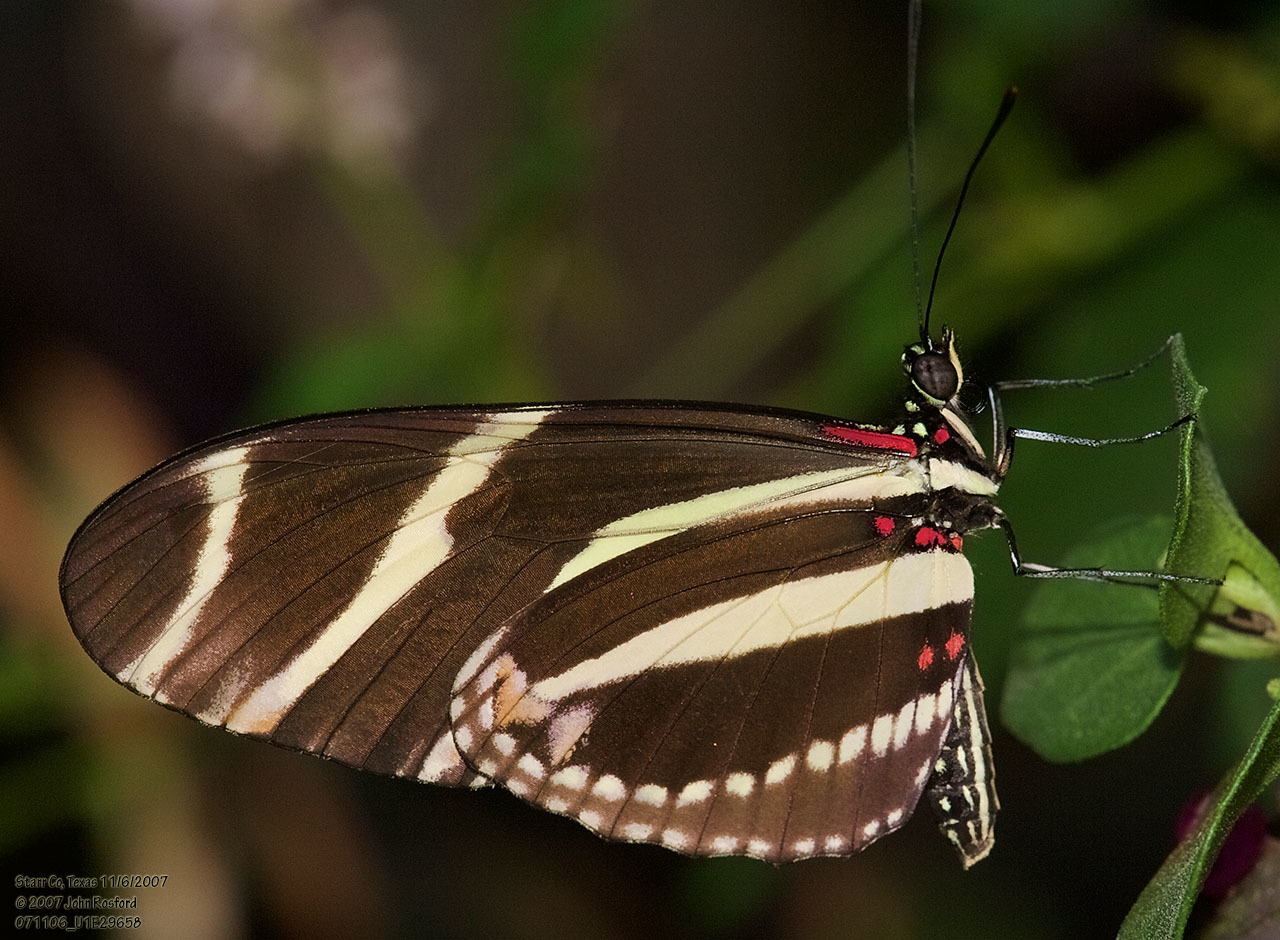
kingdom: Animalia
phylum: Arthropoda
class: Insecta
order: Lepidoptera
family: Nymphalidae
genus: Heliconius
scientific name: Heliconius charithonia
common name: Zebra long wing
